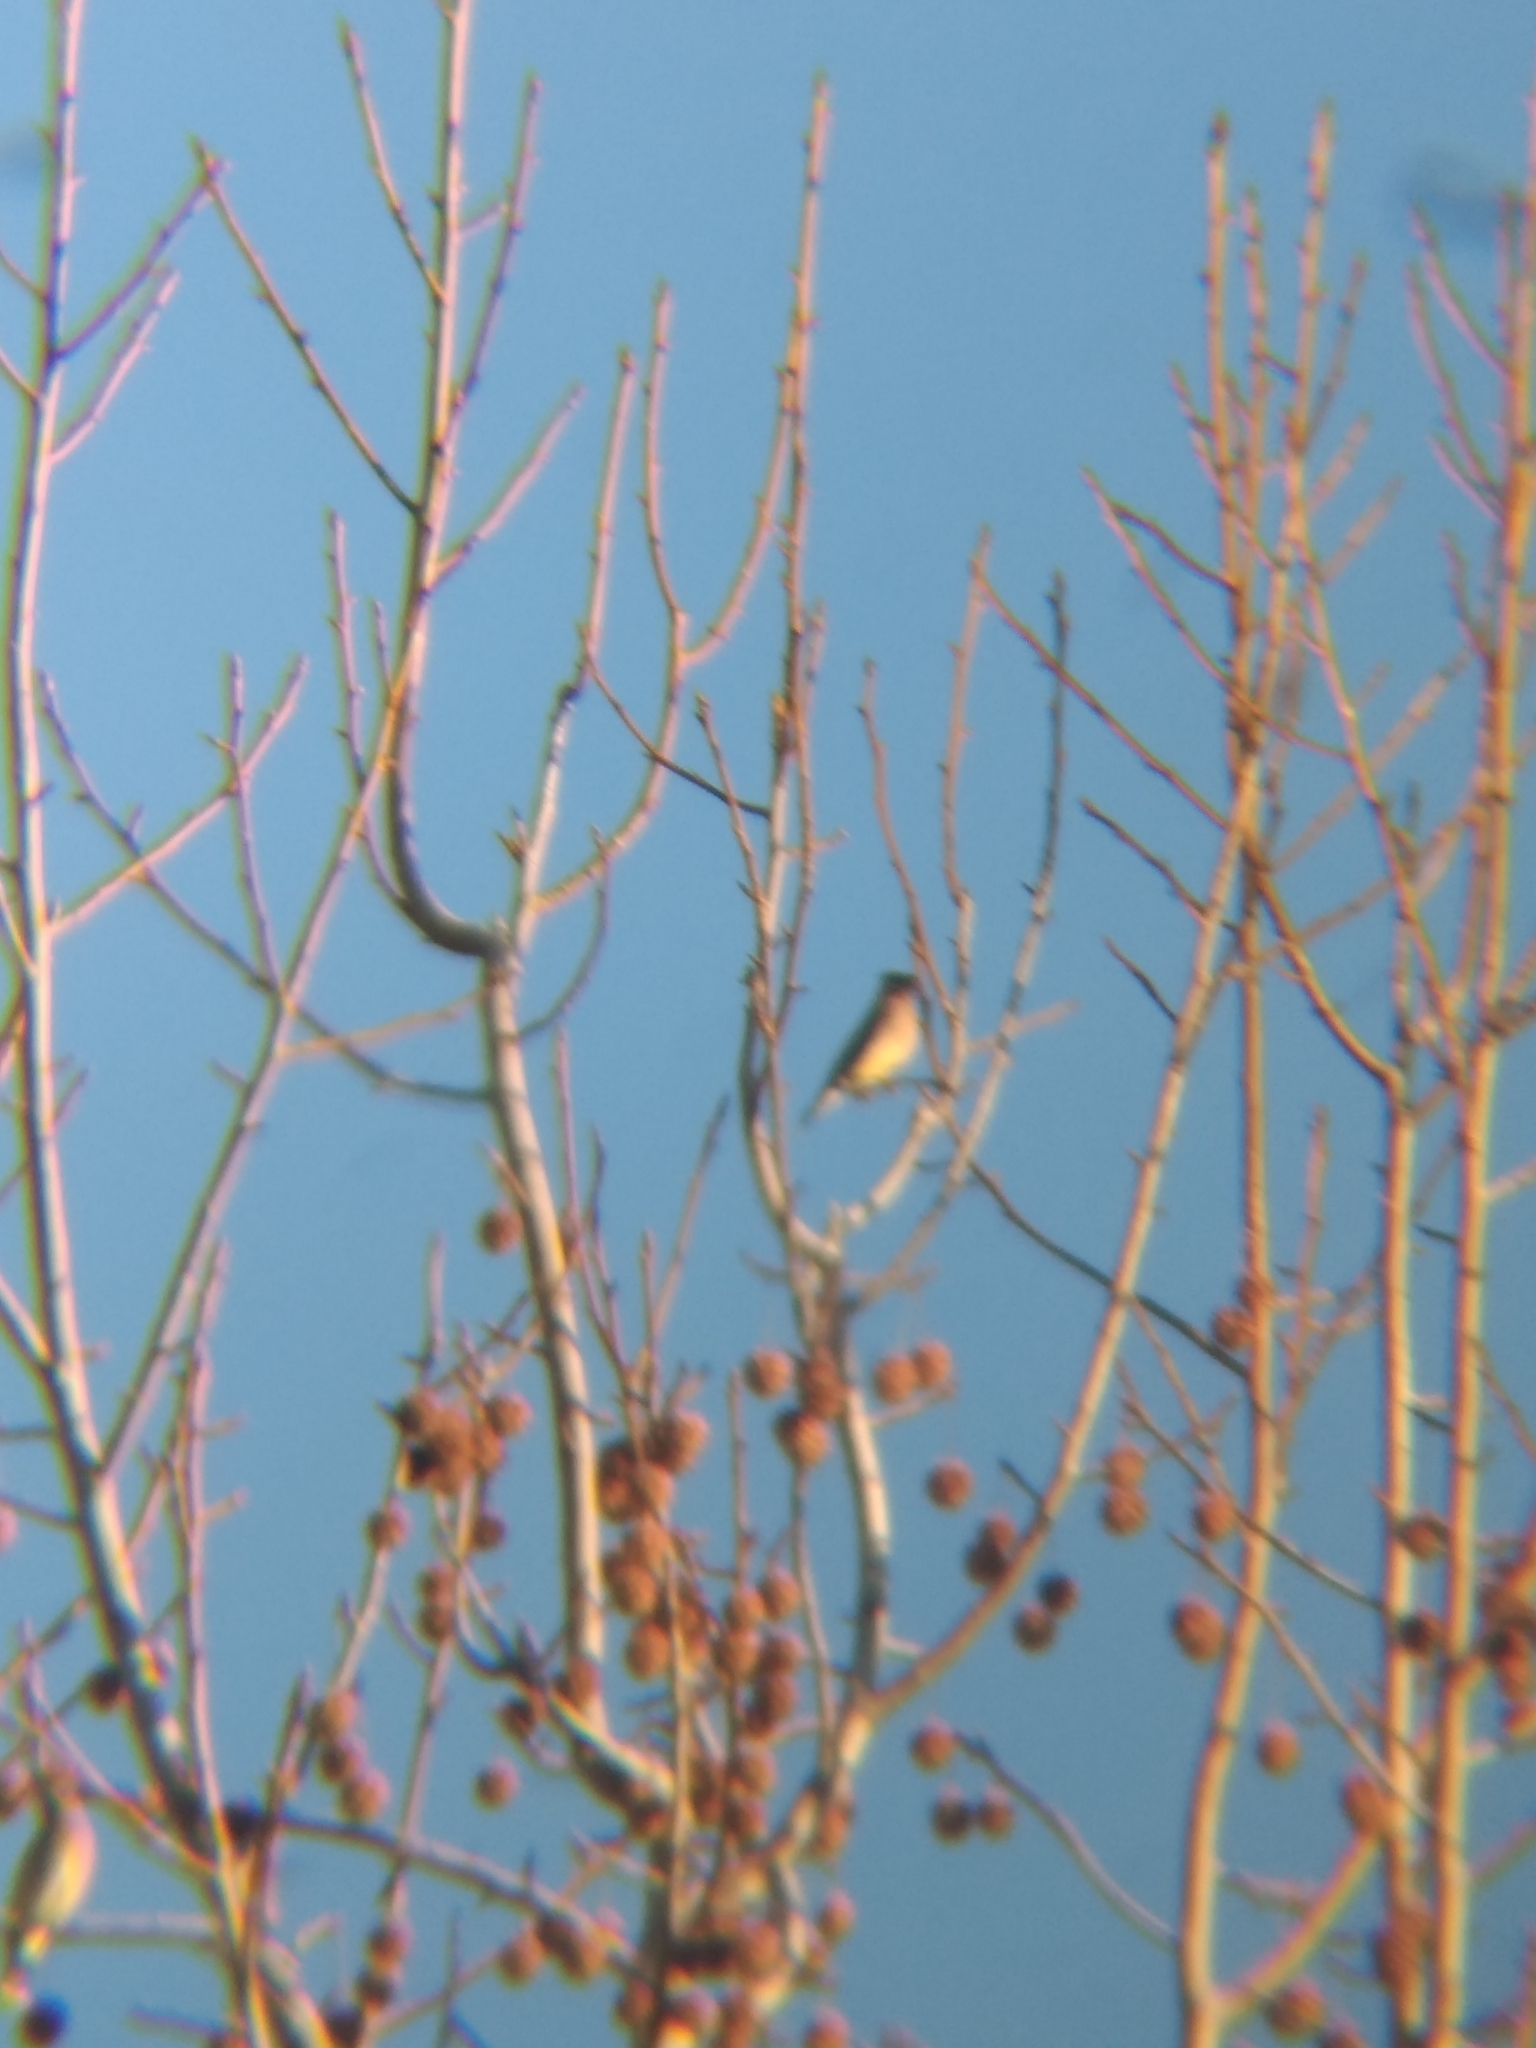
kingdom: Animalia
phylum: Chordata
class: Aves
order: Passeriformes
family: Bombycillidae
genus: Bombycilla
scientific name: Bombycilla cedrorum
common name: Cedar waxwing
